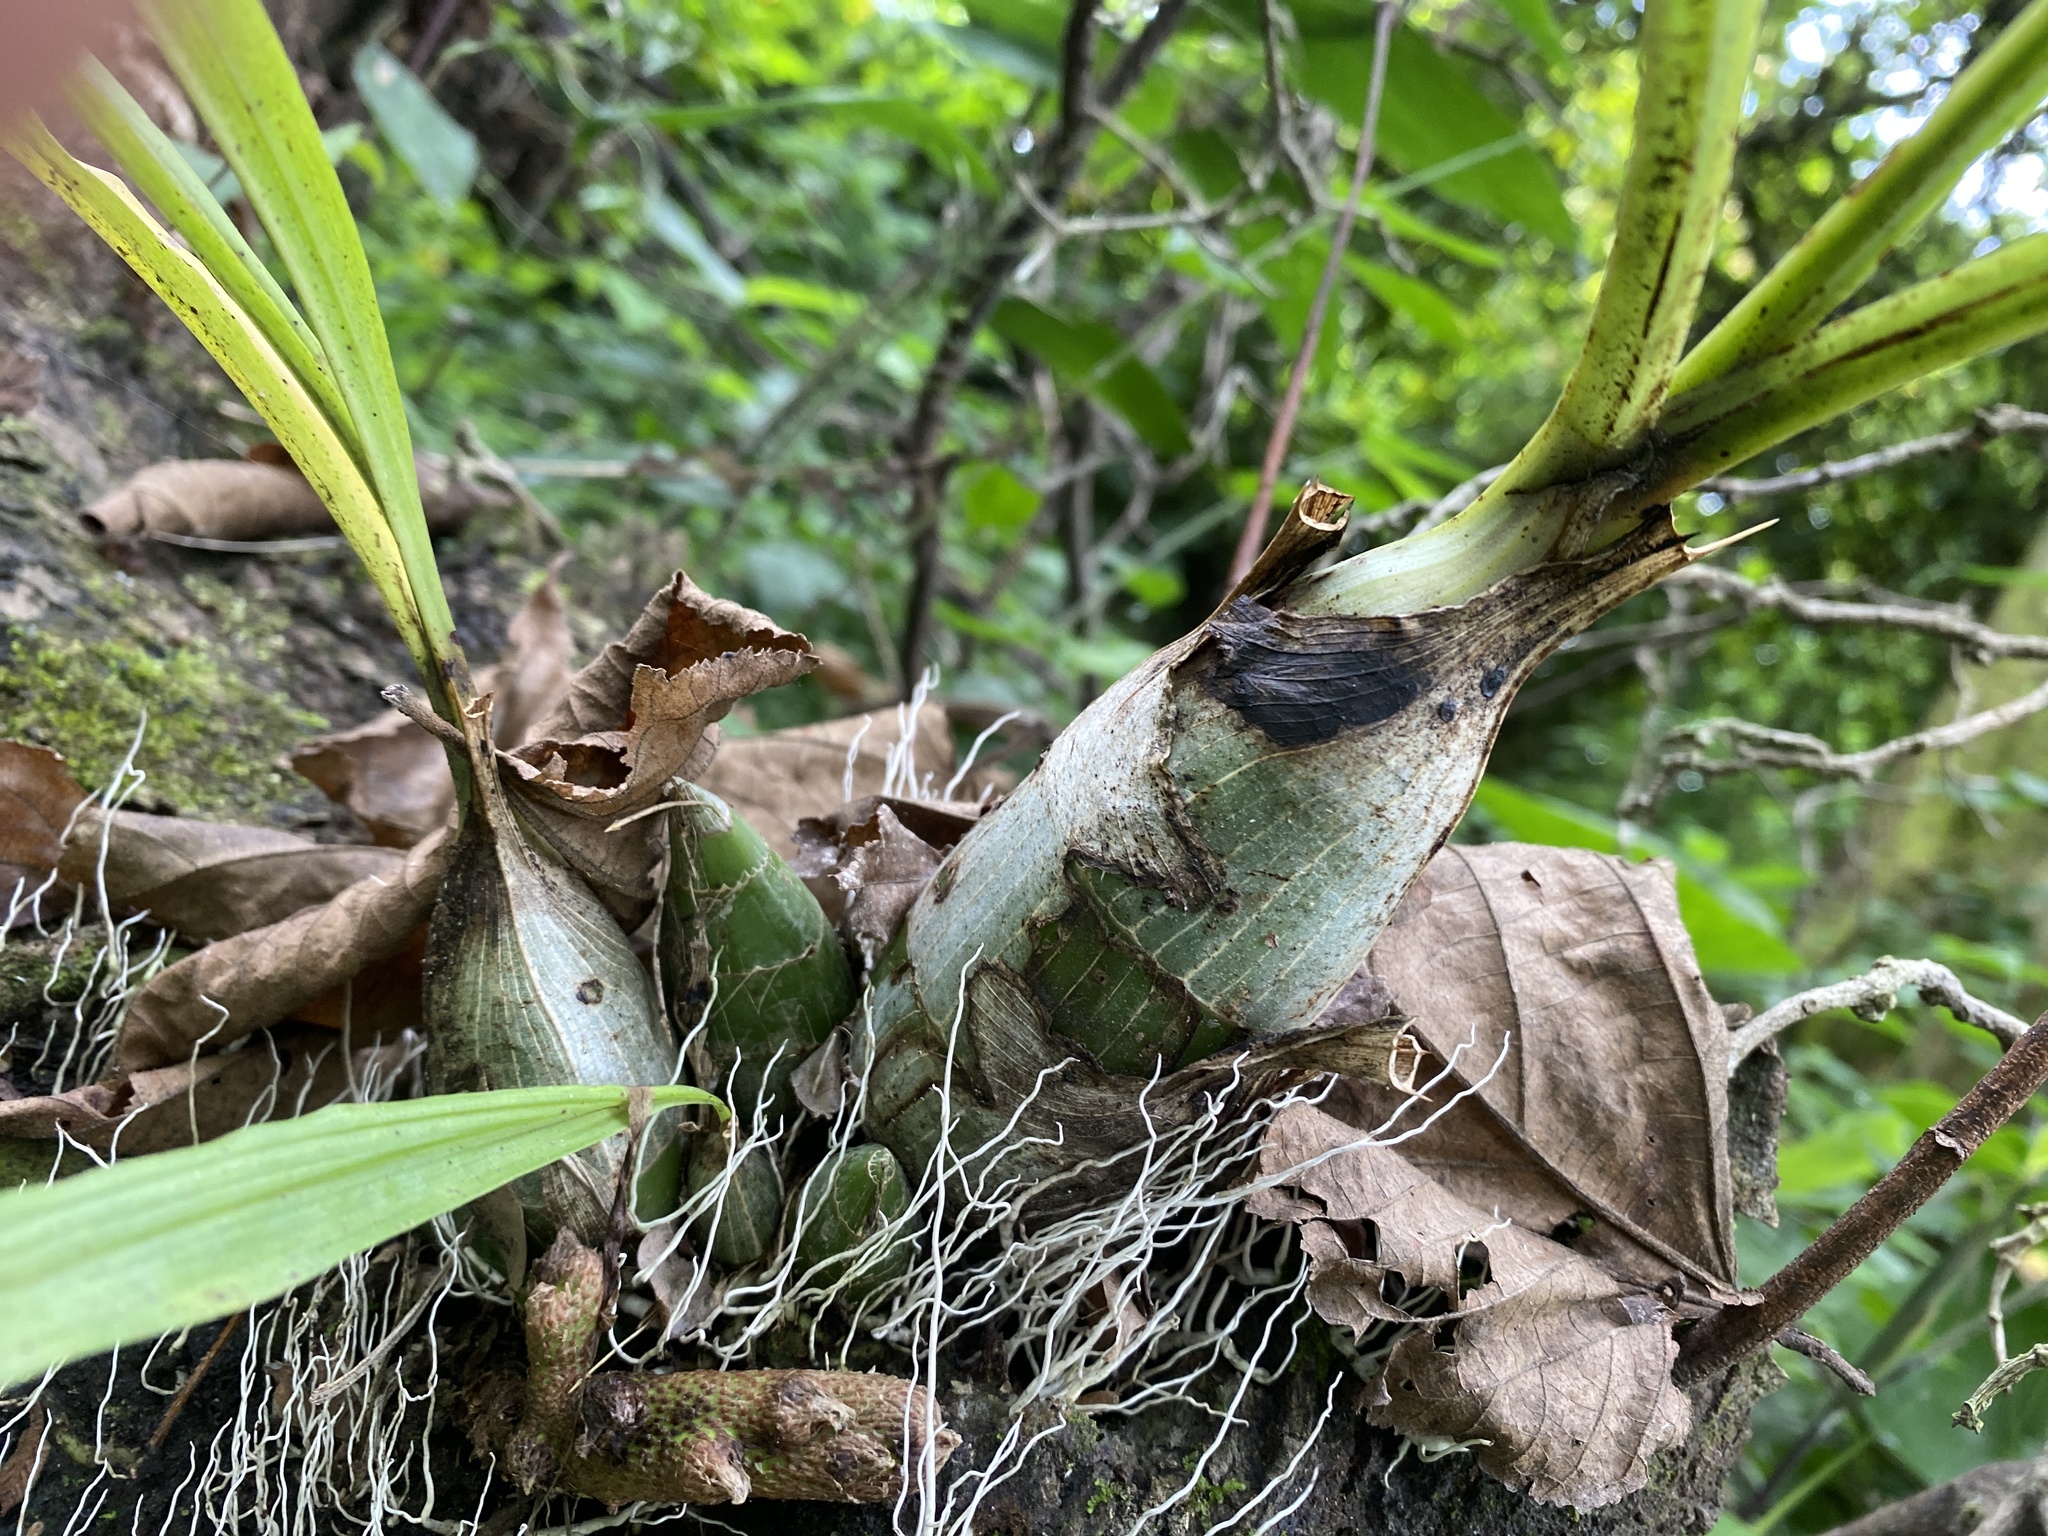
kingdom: Plantae
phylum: Tracheophyta
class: Liliopsida
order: Asparagales
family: Orchidaceae
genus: Catasetum
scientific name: Catasetum integerrimum
